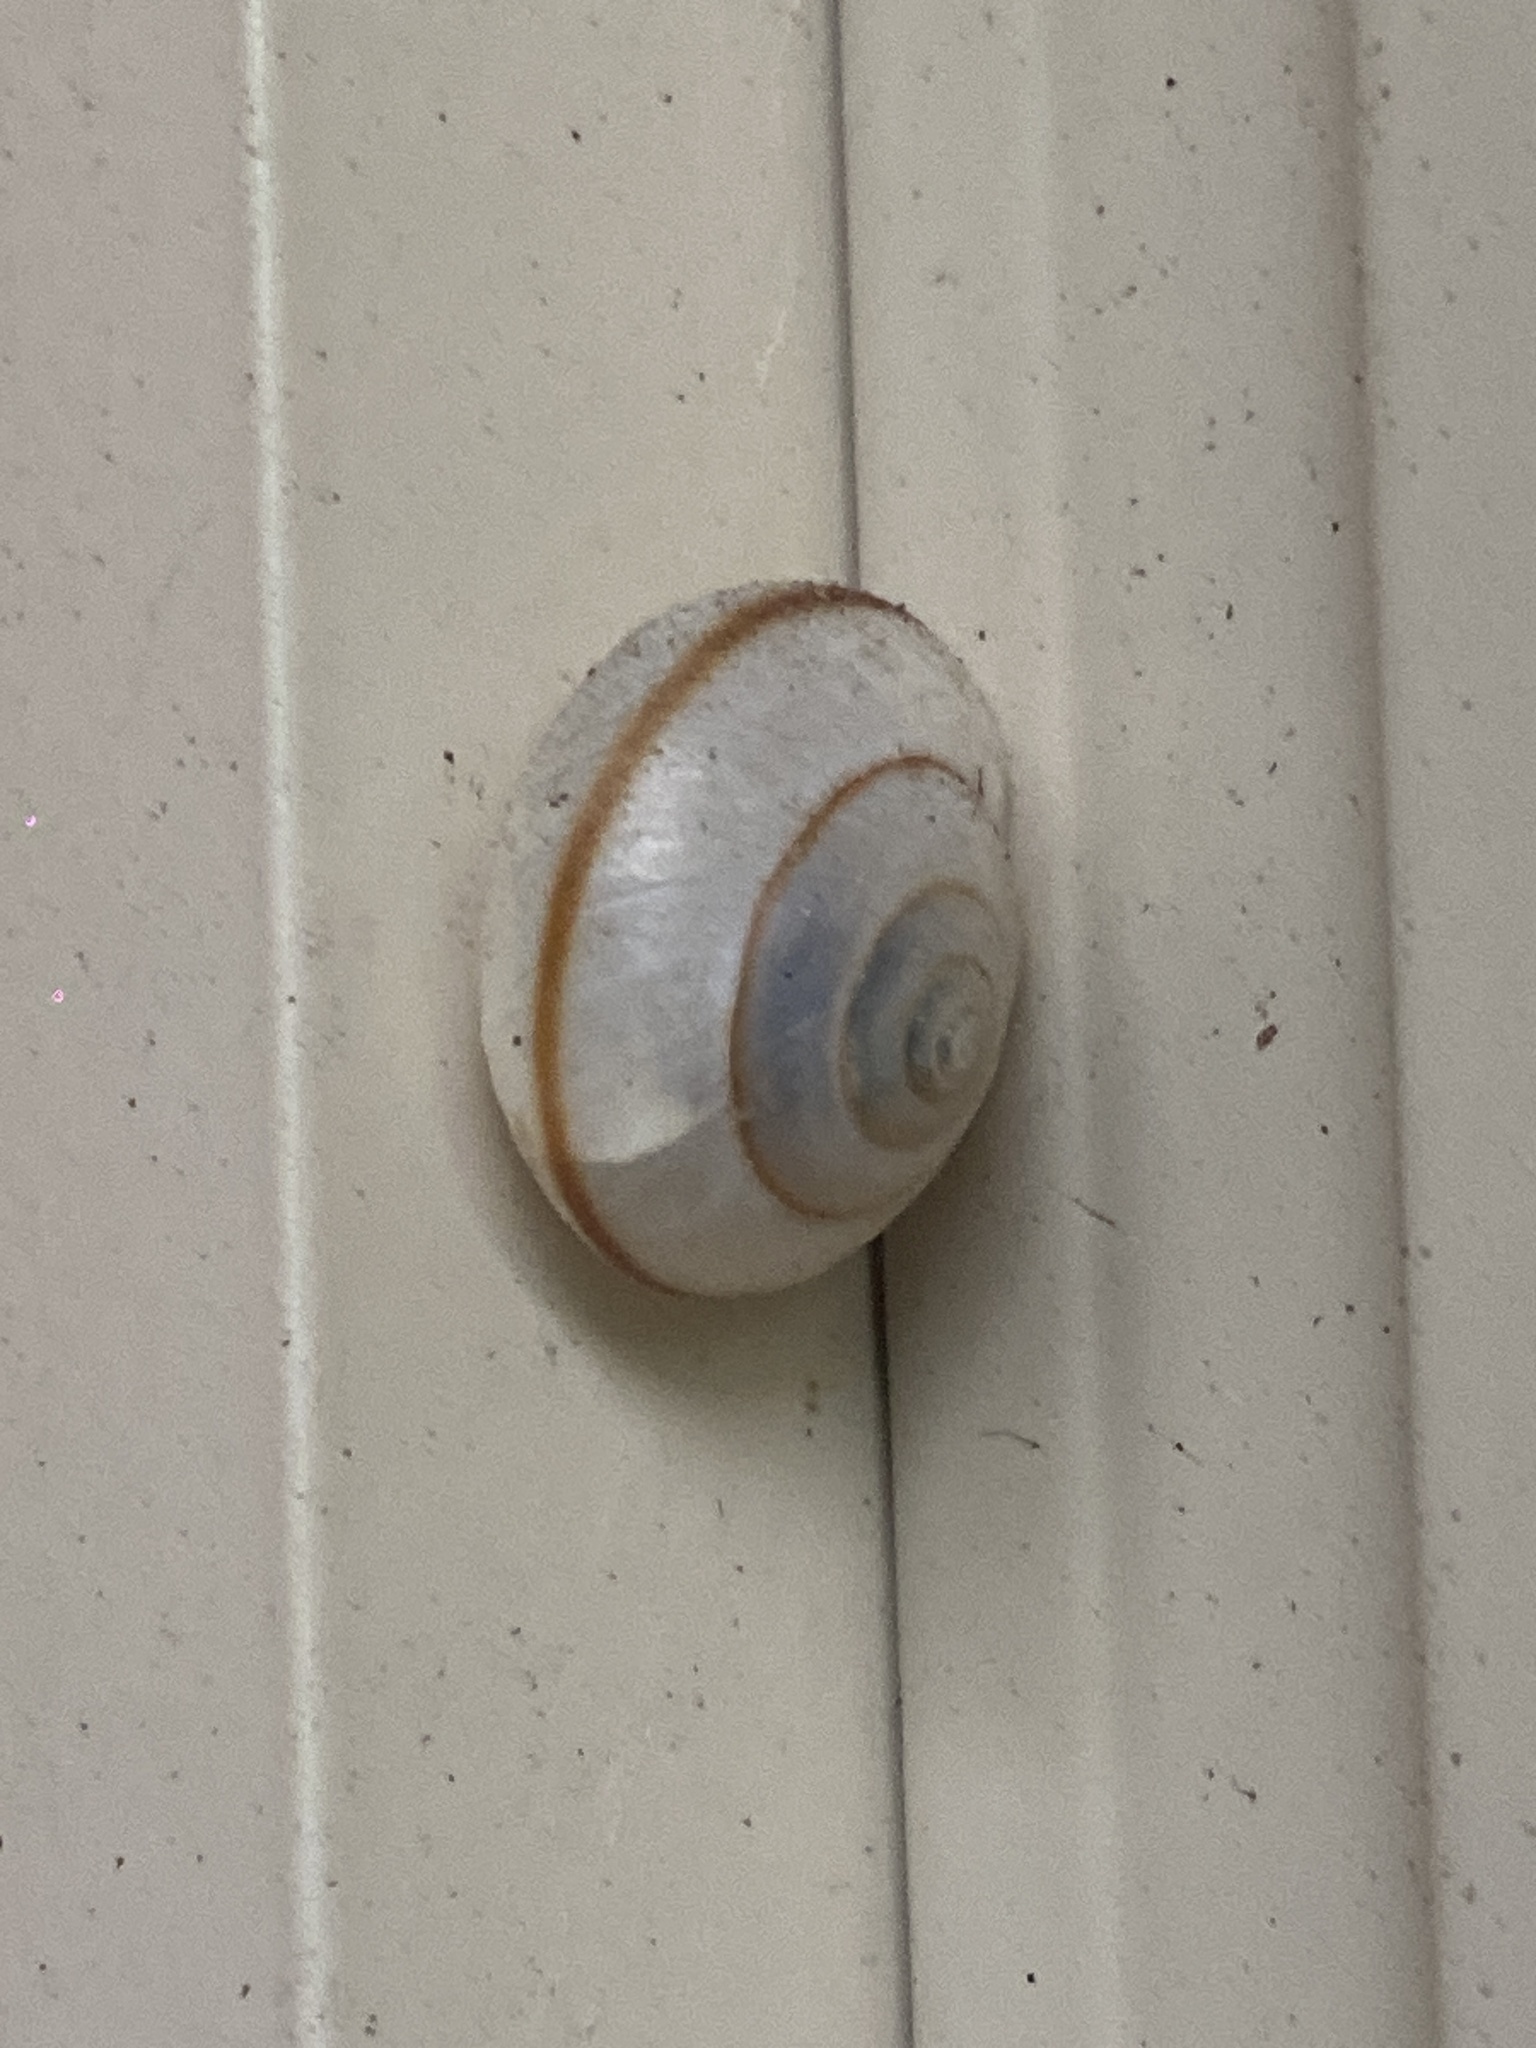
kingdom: Animalia
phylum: Mollusca
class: Gastropoda
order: Stylommatophora
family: Camaenidae
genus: Bradybaena
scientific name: Bradybaena similaris
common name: Asian trampsnail
